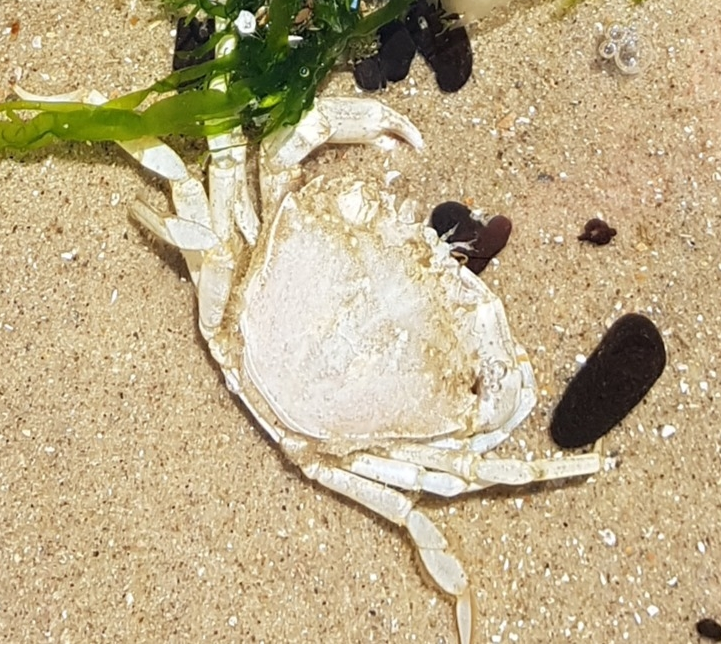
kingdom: Animalia
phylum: Arthropoda
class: Malacostraca
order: Decapoda
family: Carcinidae
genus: Carcinus
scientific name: Carcinus maenas
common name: European green crab
